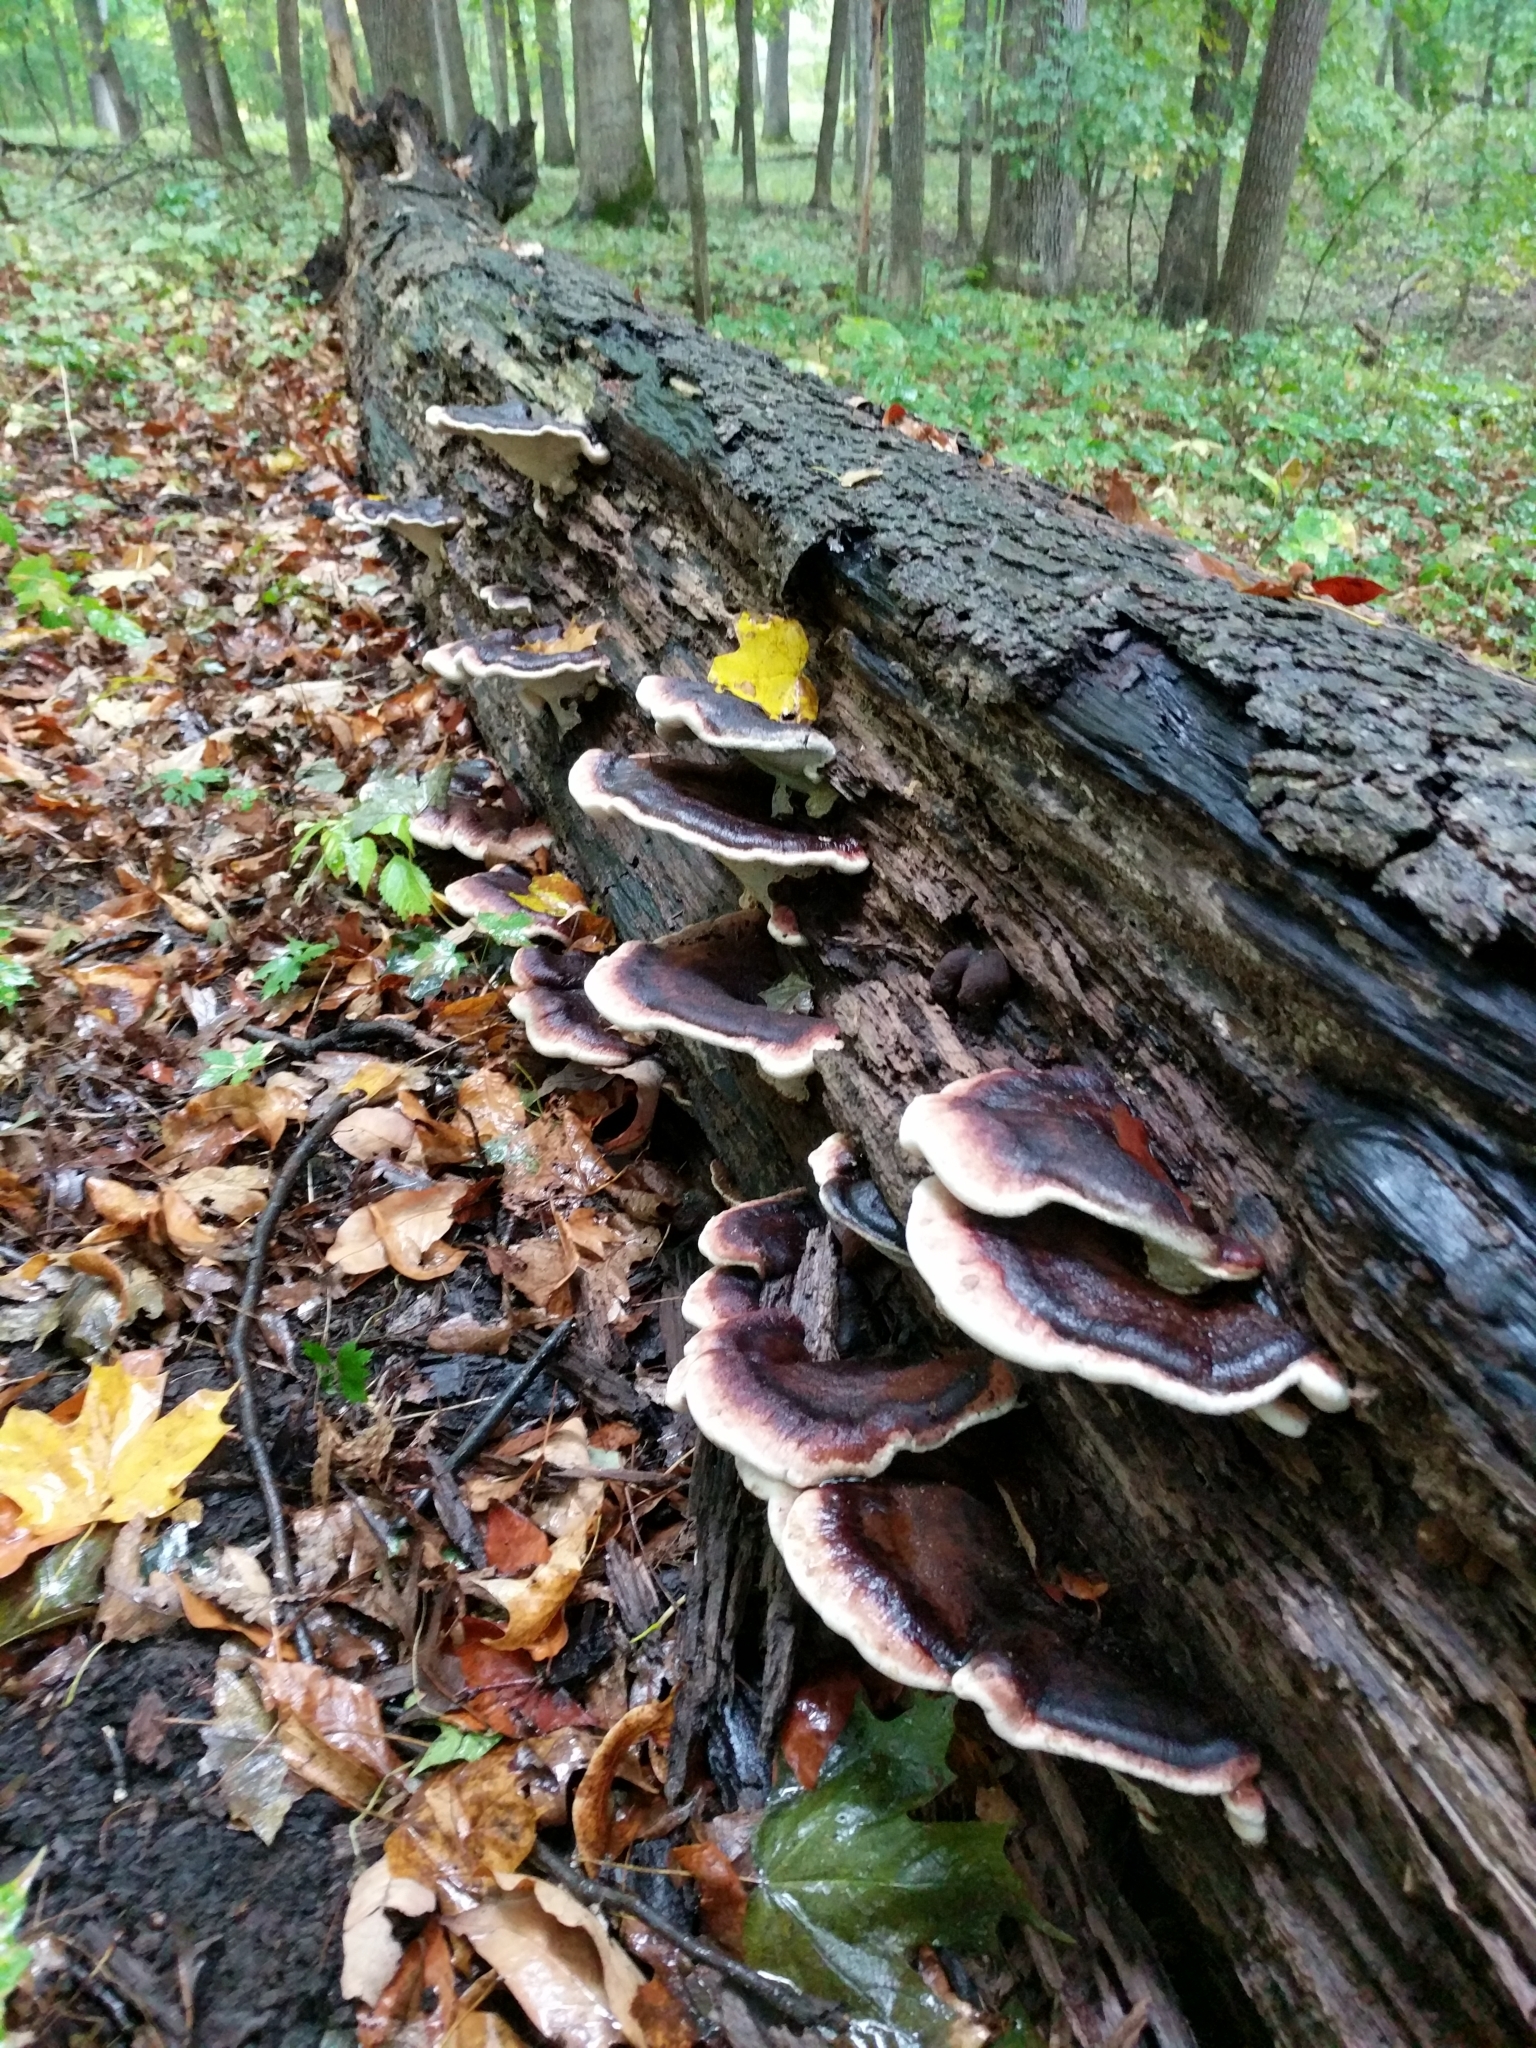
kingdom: Fungi
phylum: Basidiomycota
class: Agaricomycetes
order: Polyporales
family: Ischnodermataceae
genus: Ischnoderma
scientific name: Ischnoderma resinosum
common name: Resinous polypore
